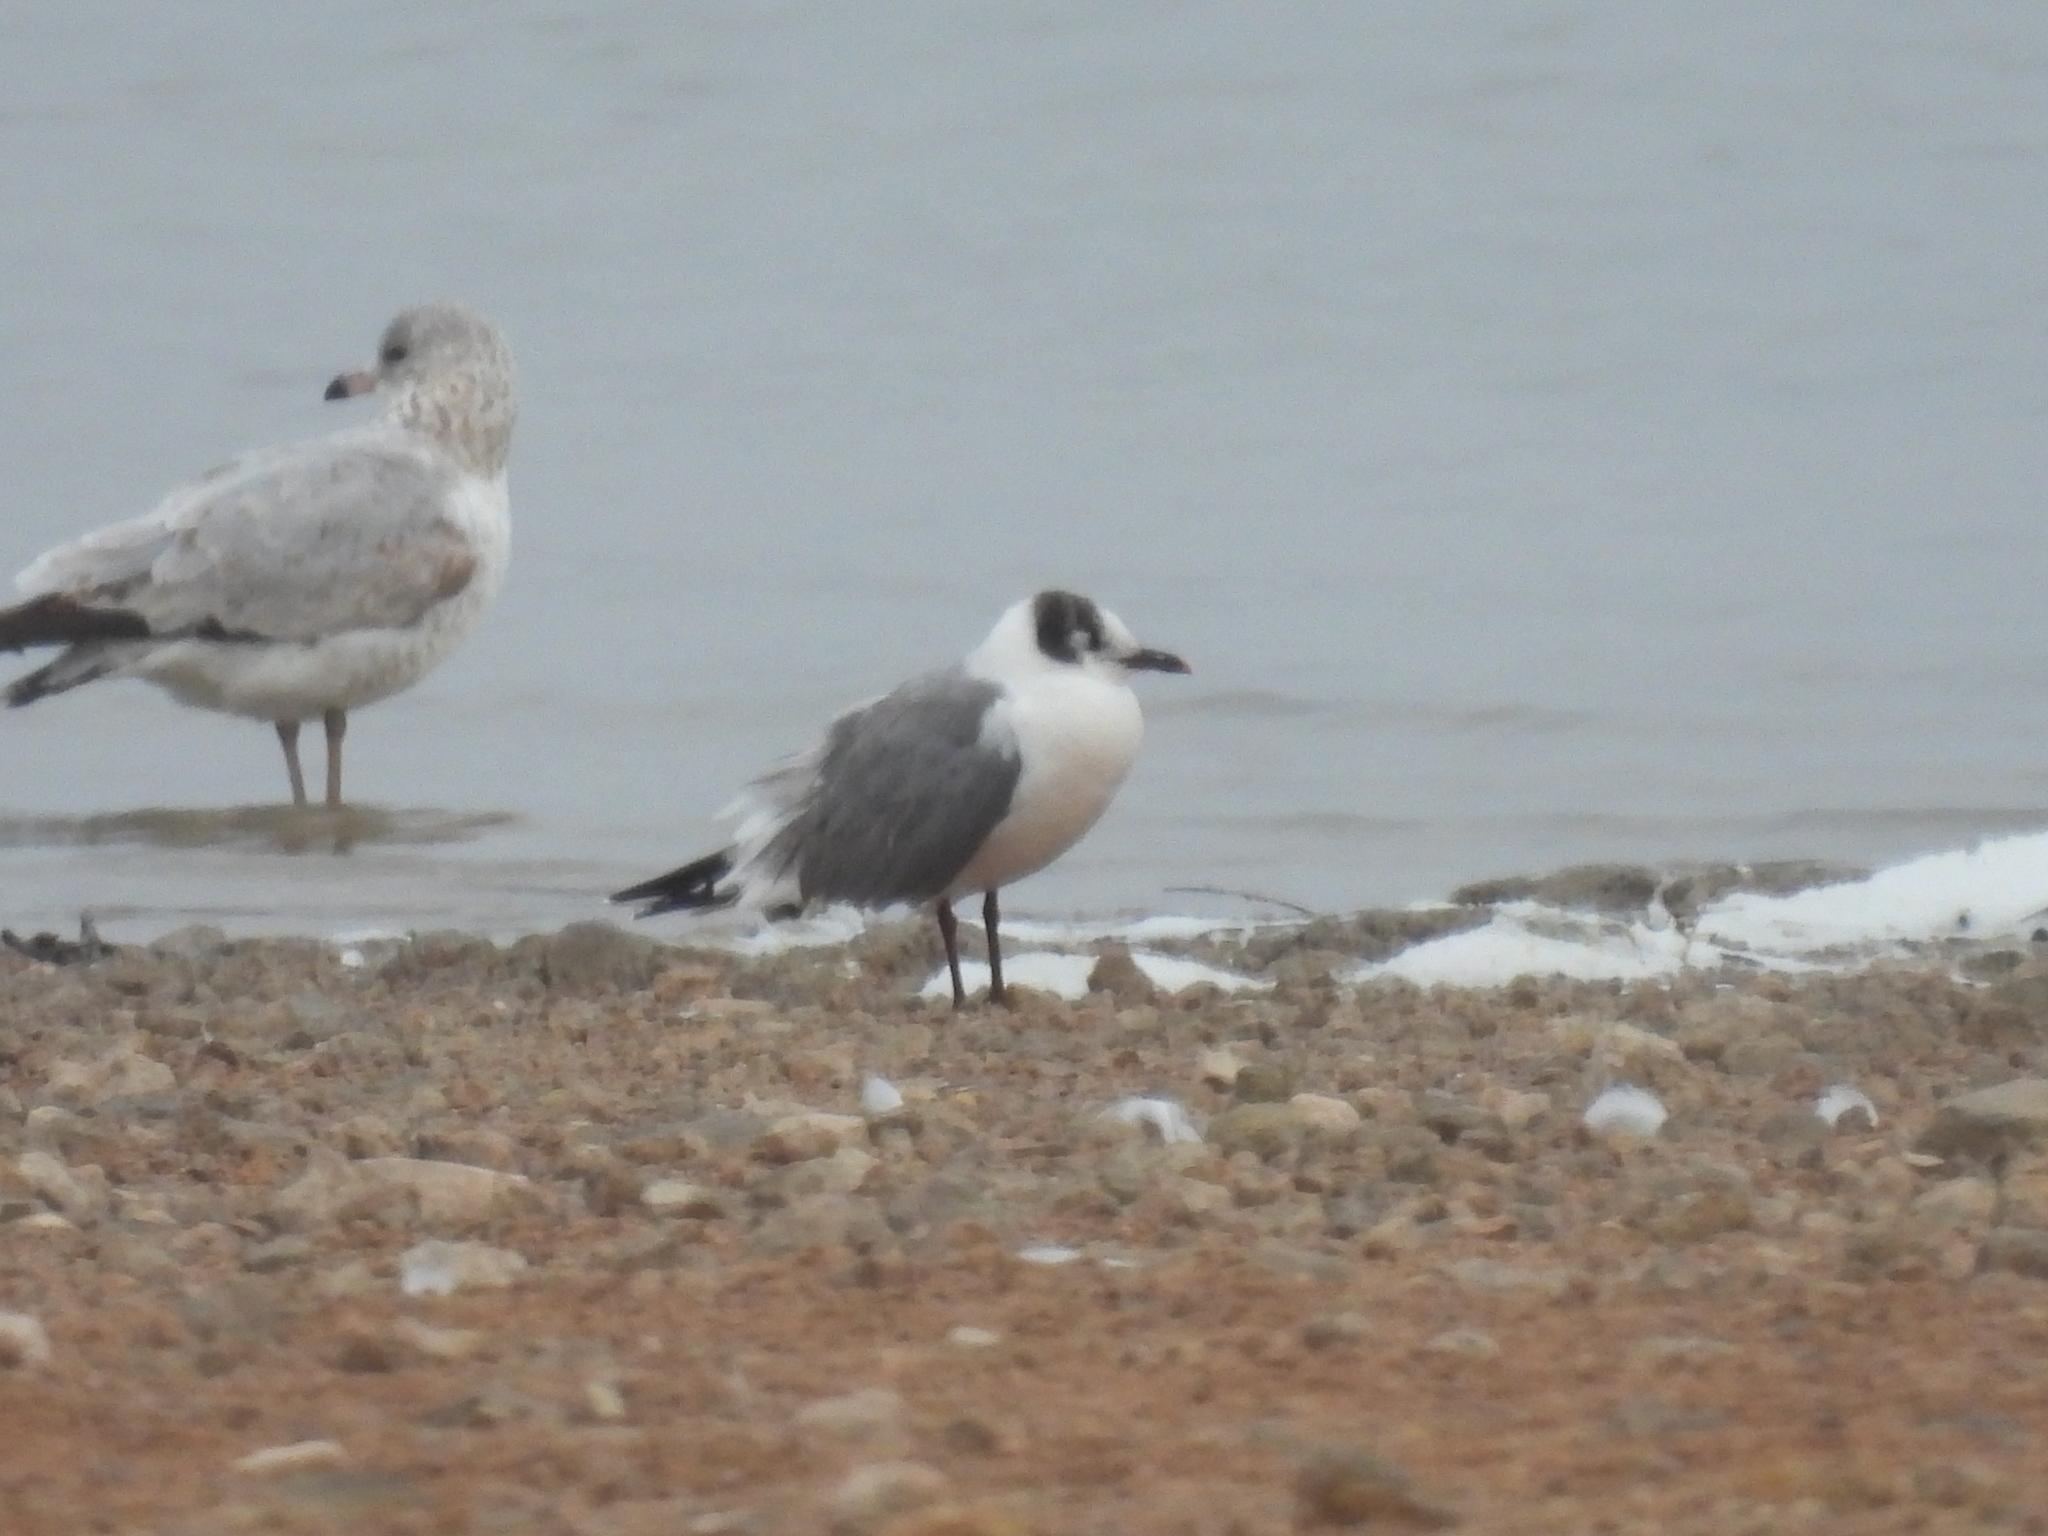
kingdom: Animalia
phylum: Chordata
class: Aves
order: Charadriiformes
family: Laridae
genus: Leucophaeus
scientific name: Leucophaeus pipixcan
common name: Franklin's gull
